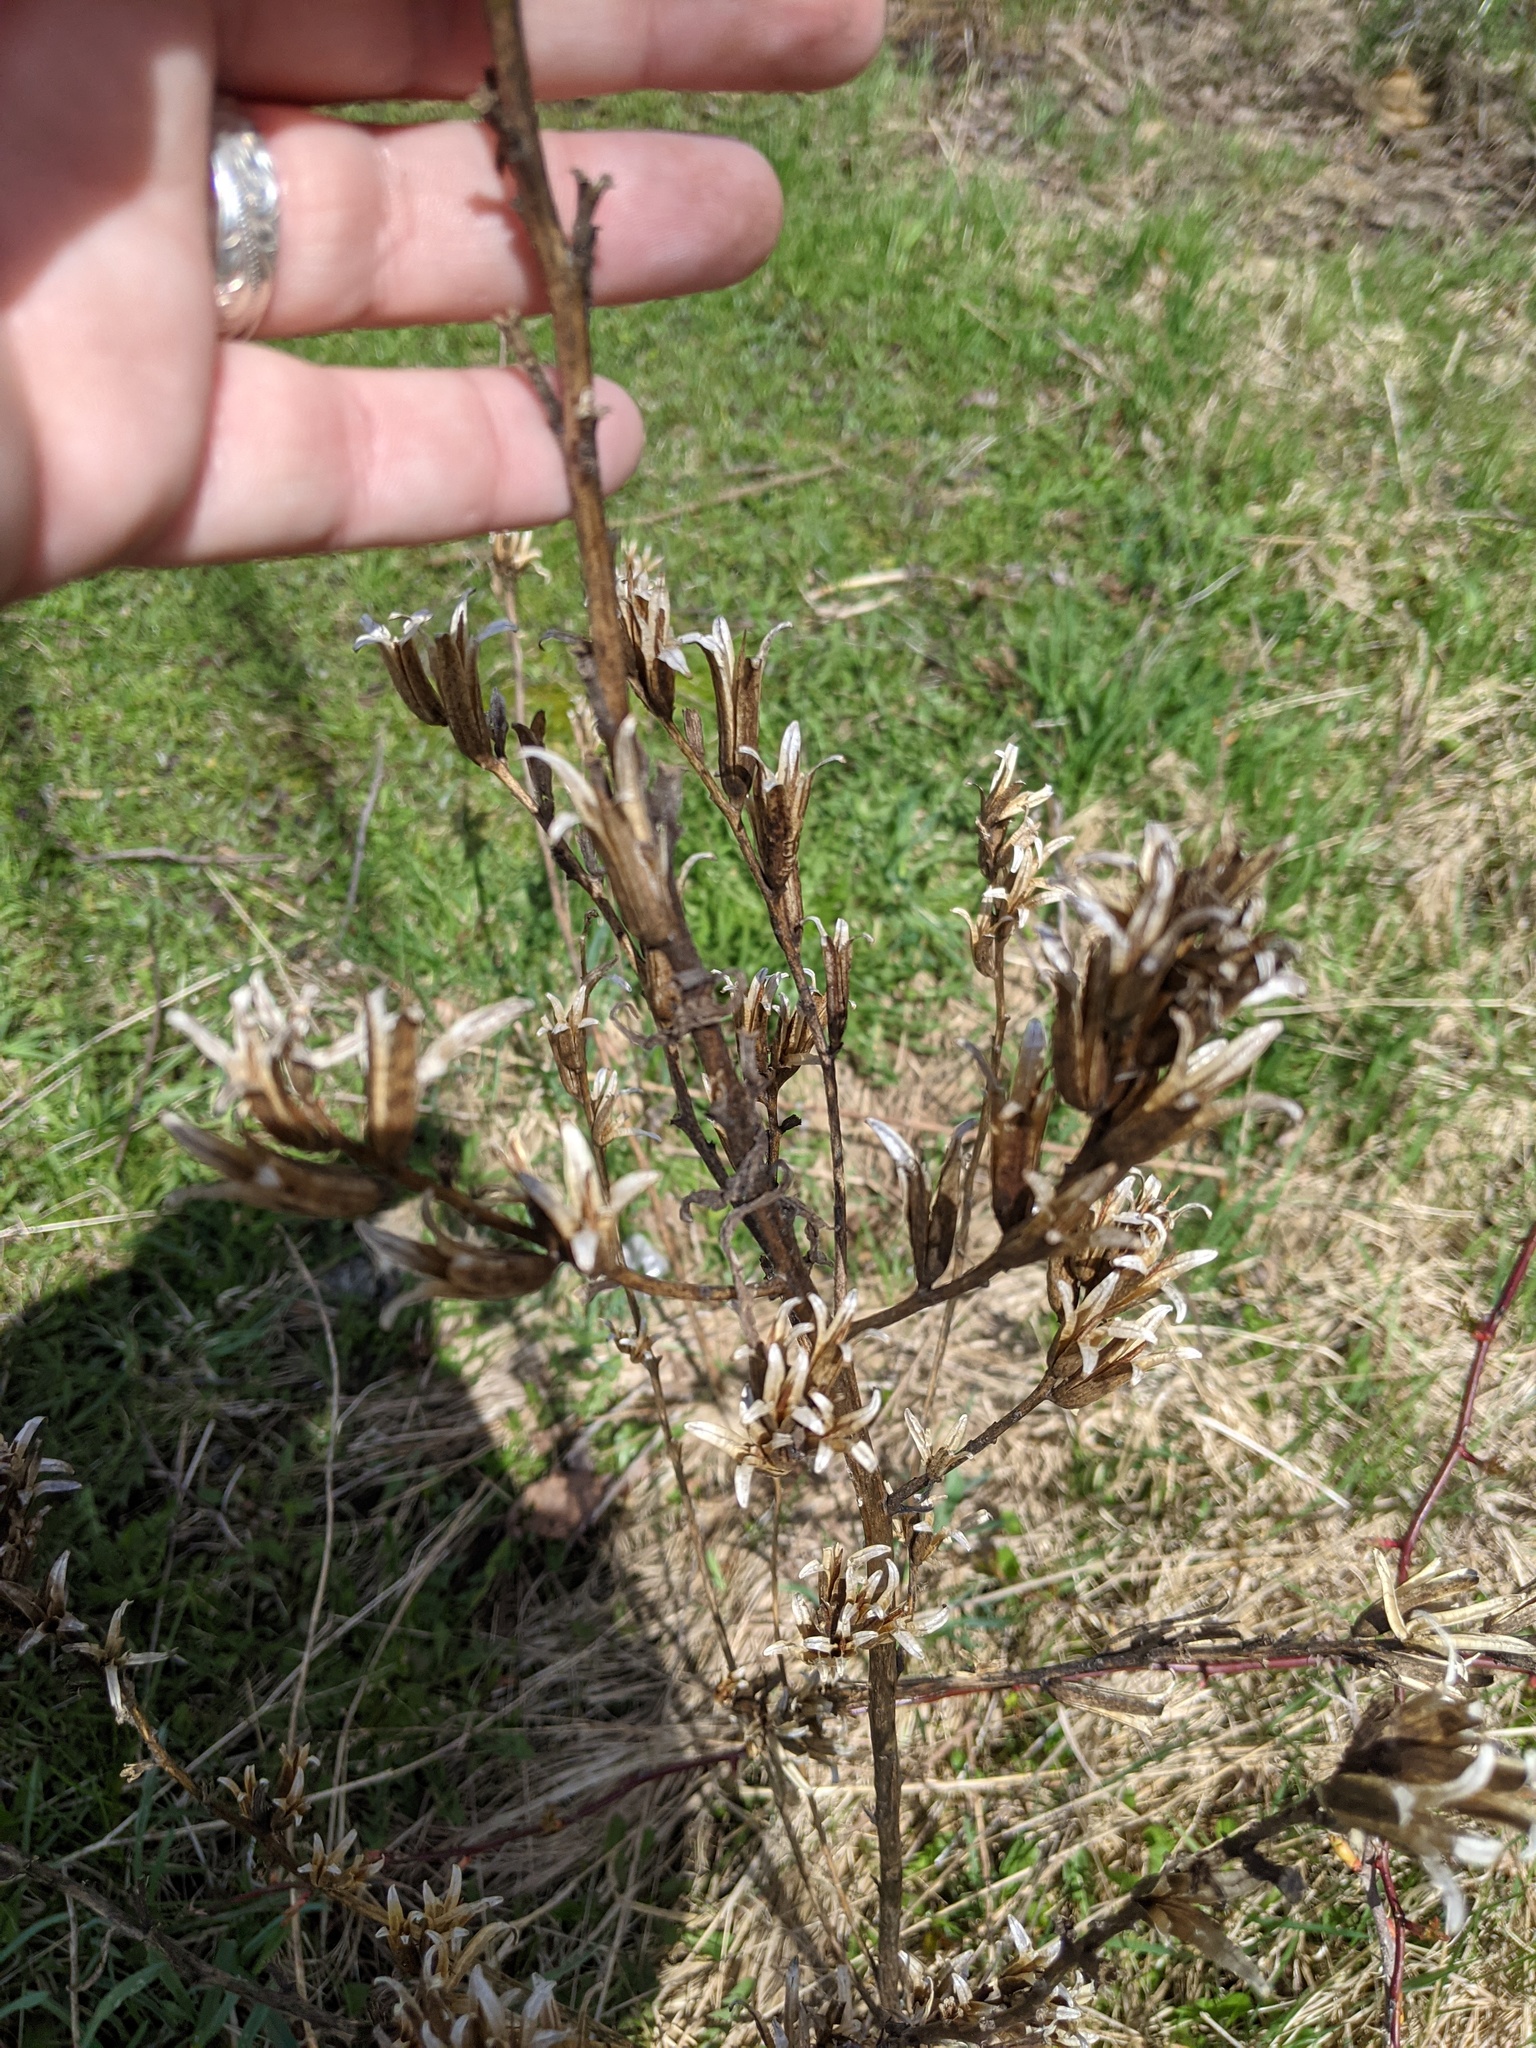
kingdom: Plantae
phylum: Tracheophyta
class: Magnoliopsida
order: Myrtales
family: Onagraceae
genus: Oenothera
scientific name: Oenothera biennis
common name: Common evening-primrose
